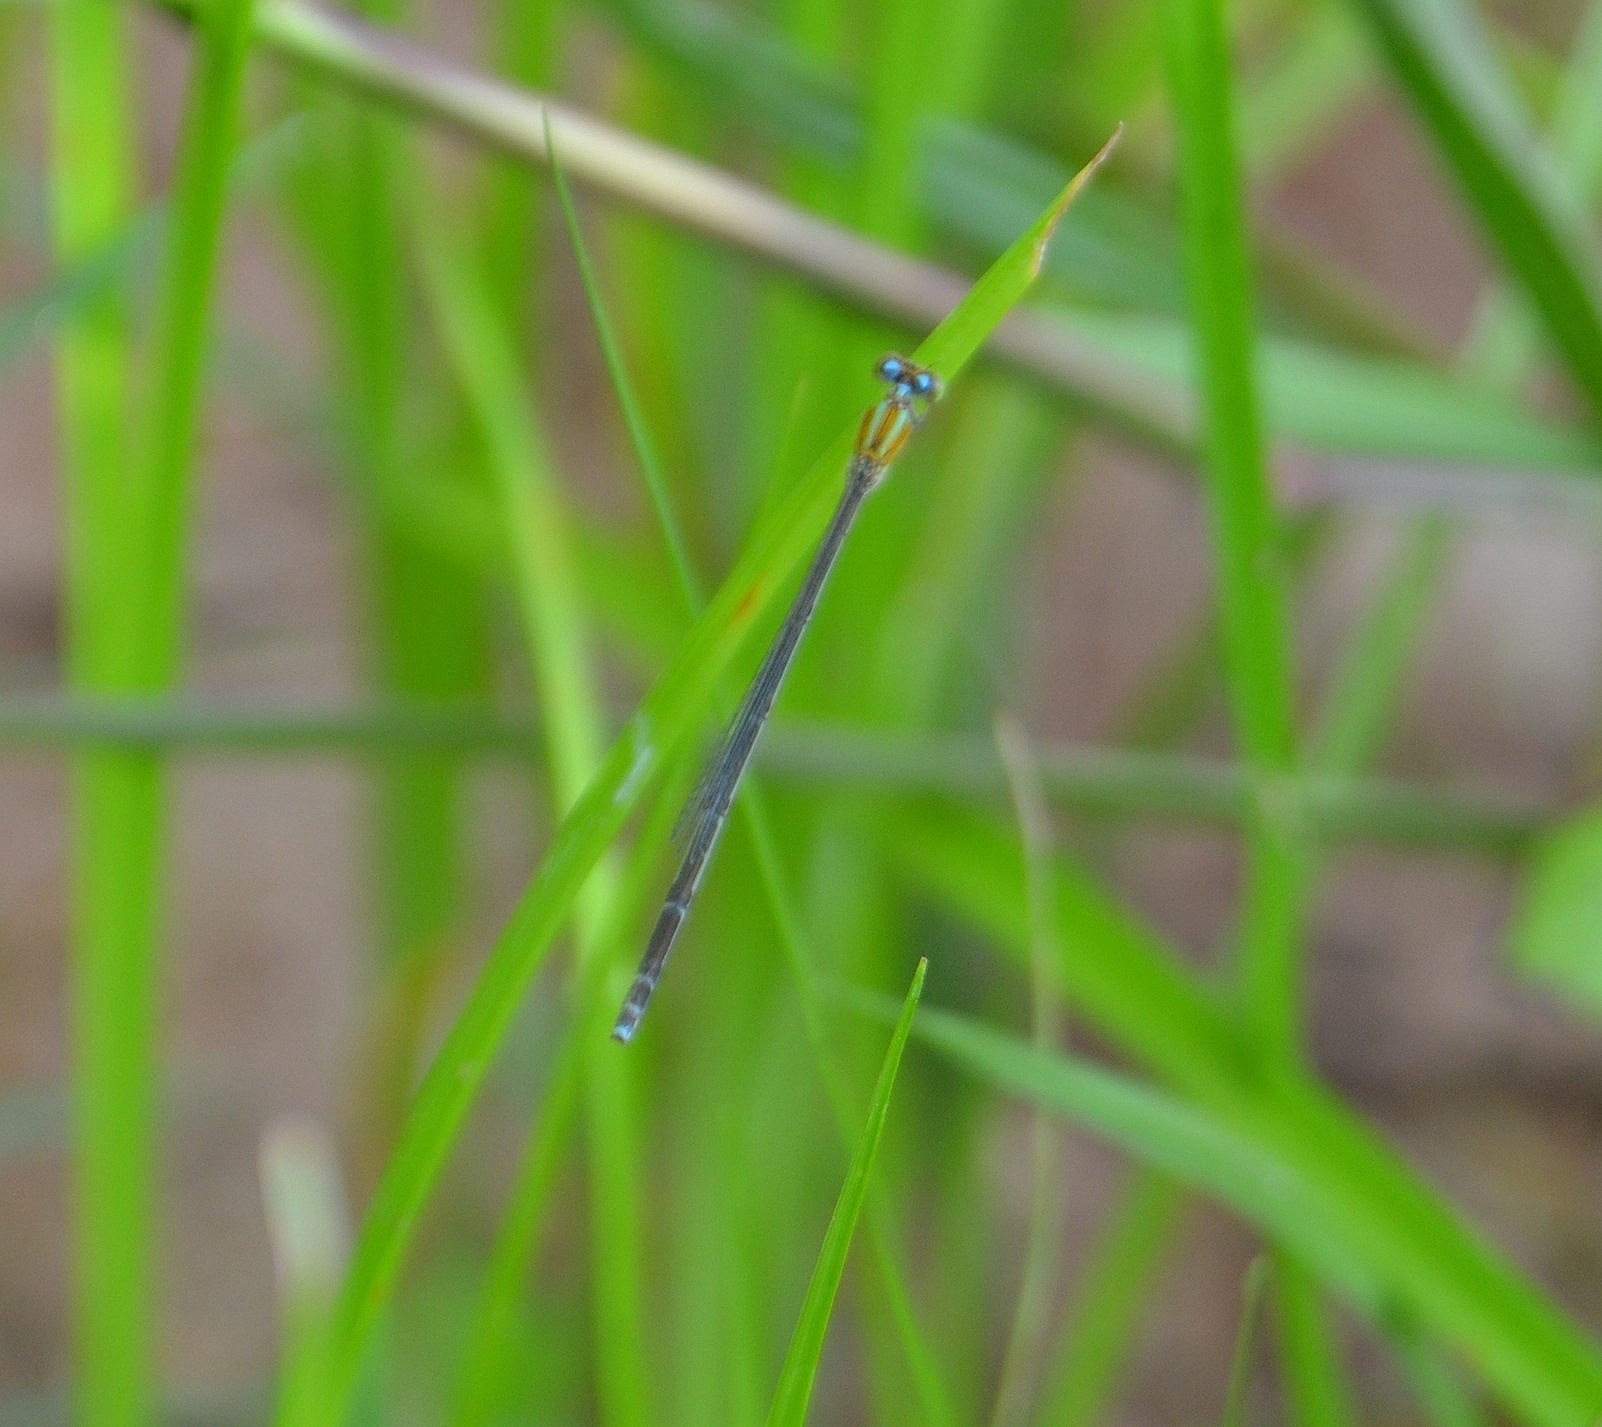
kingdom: Animalia
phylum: Arthropoda
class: Insecta
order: Odonata
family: Coenagrionidae
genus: Pseudagrion
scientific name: Pseudagrion microcephalum
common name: Blue riverdamsel
